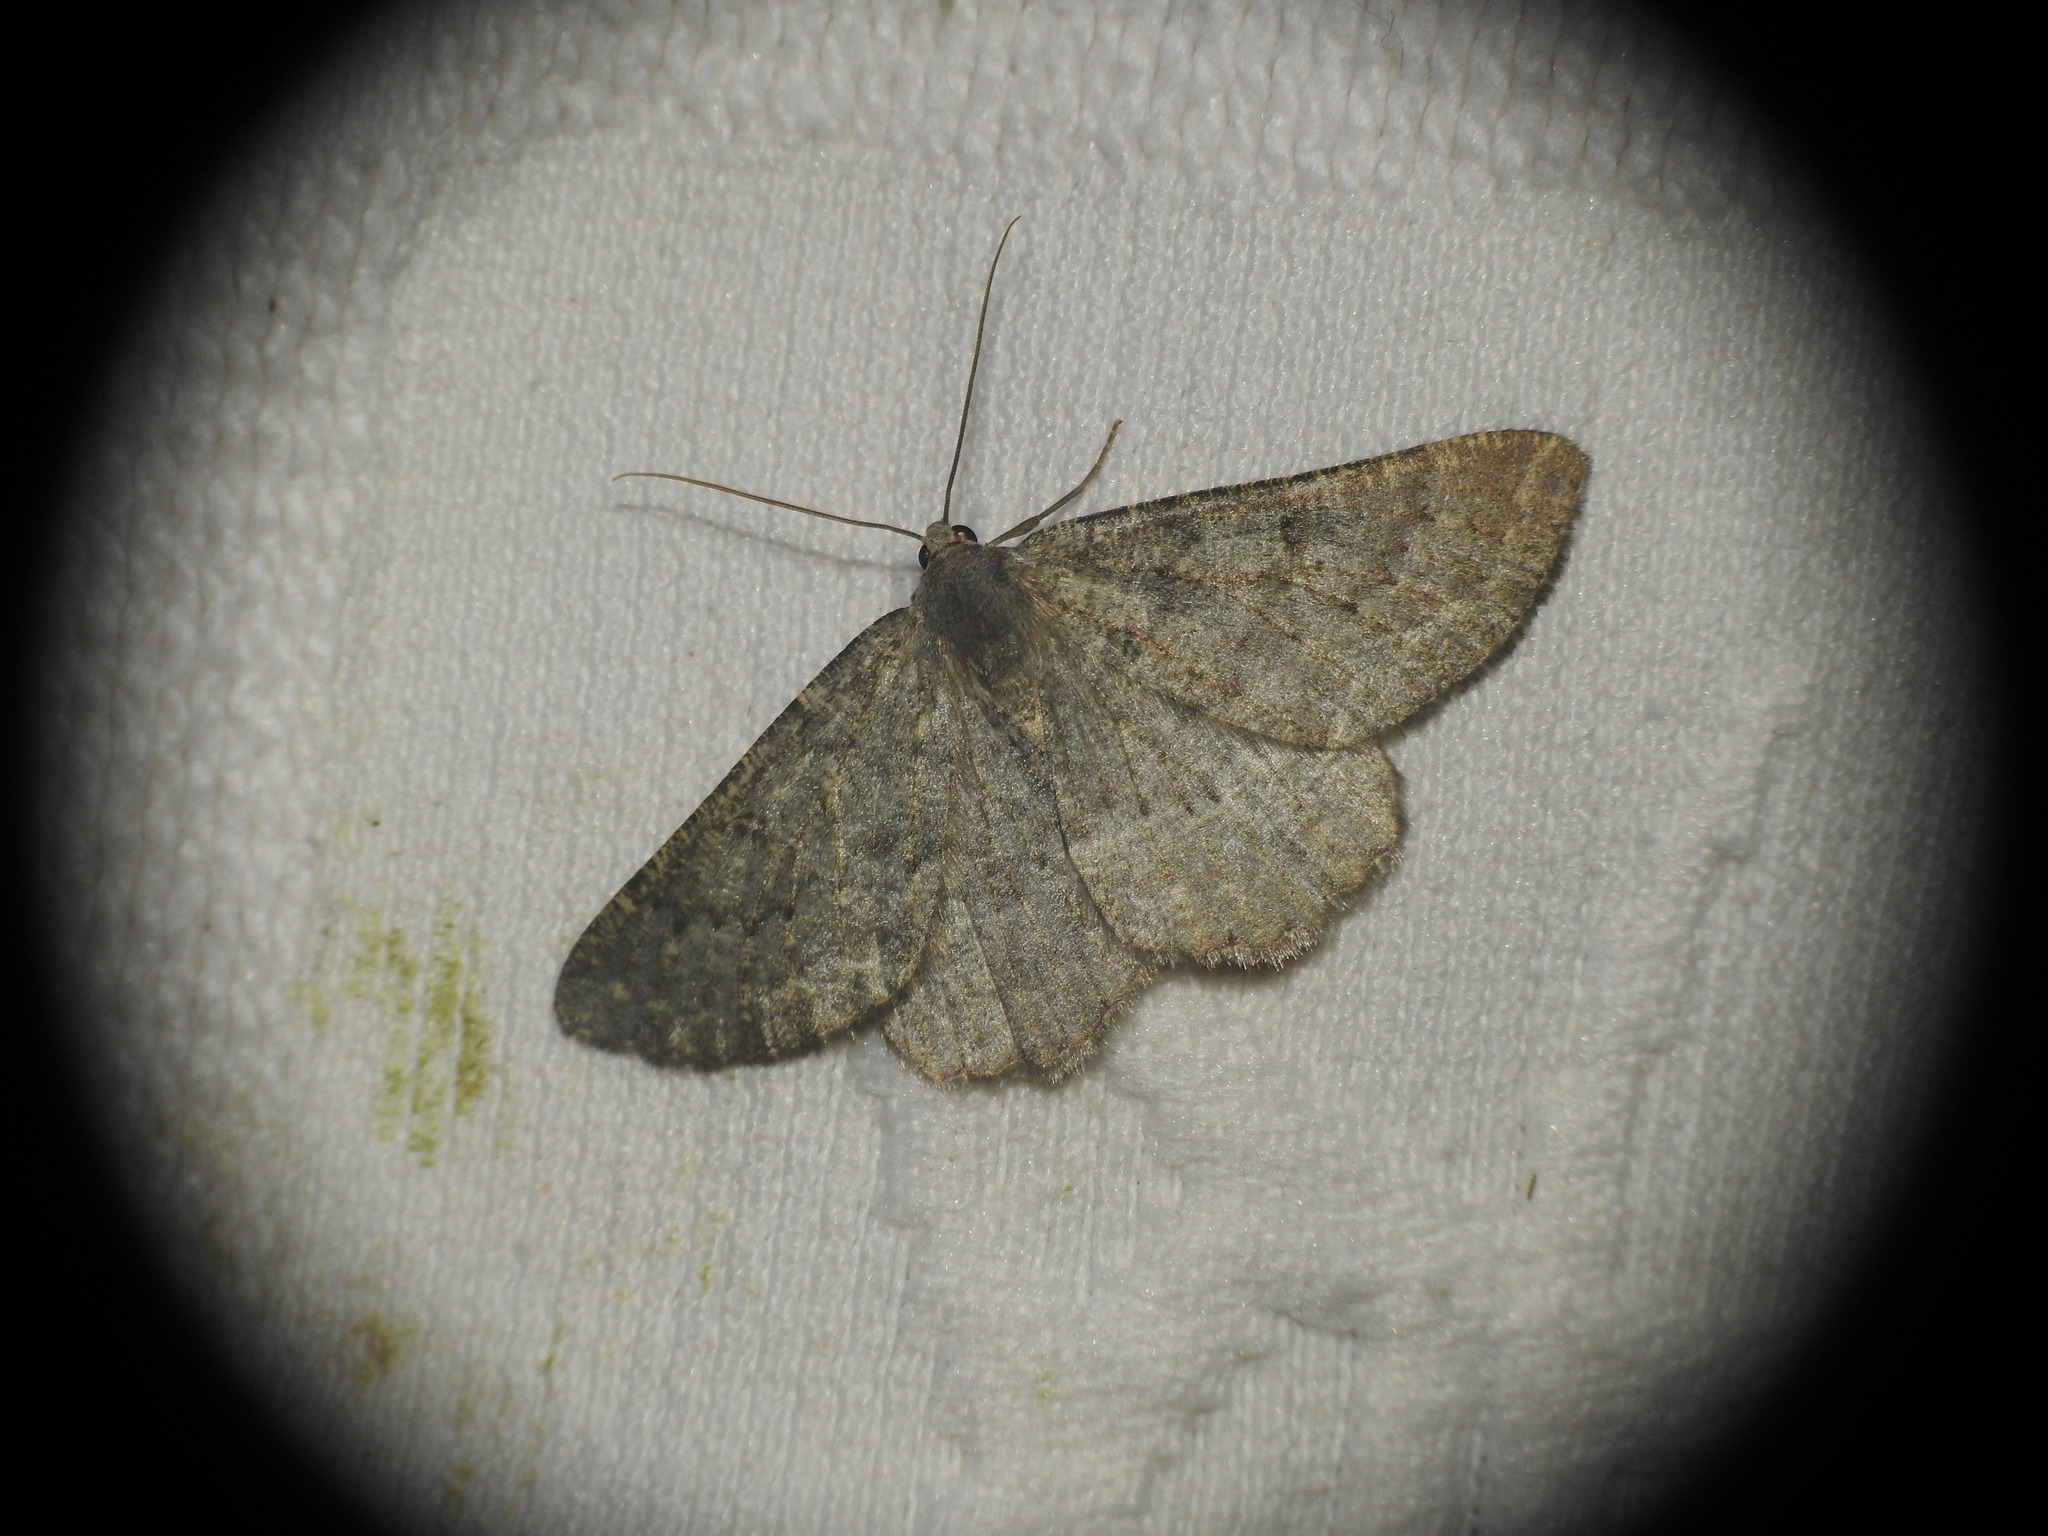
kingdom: Animalia
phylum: Arthropoda
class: Insecta
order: Lepidoptera
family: Geometridae
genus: Gnophos
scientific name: Gnophos obfuscata
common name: Scottish annulet
